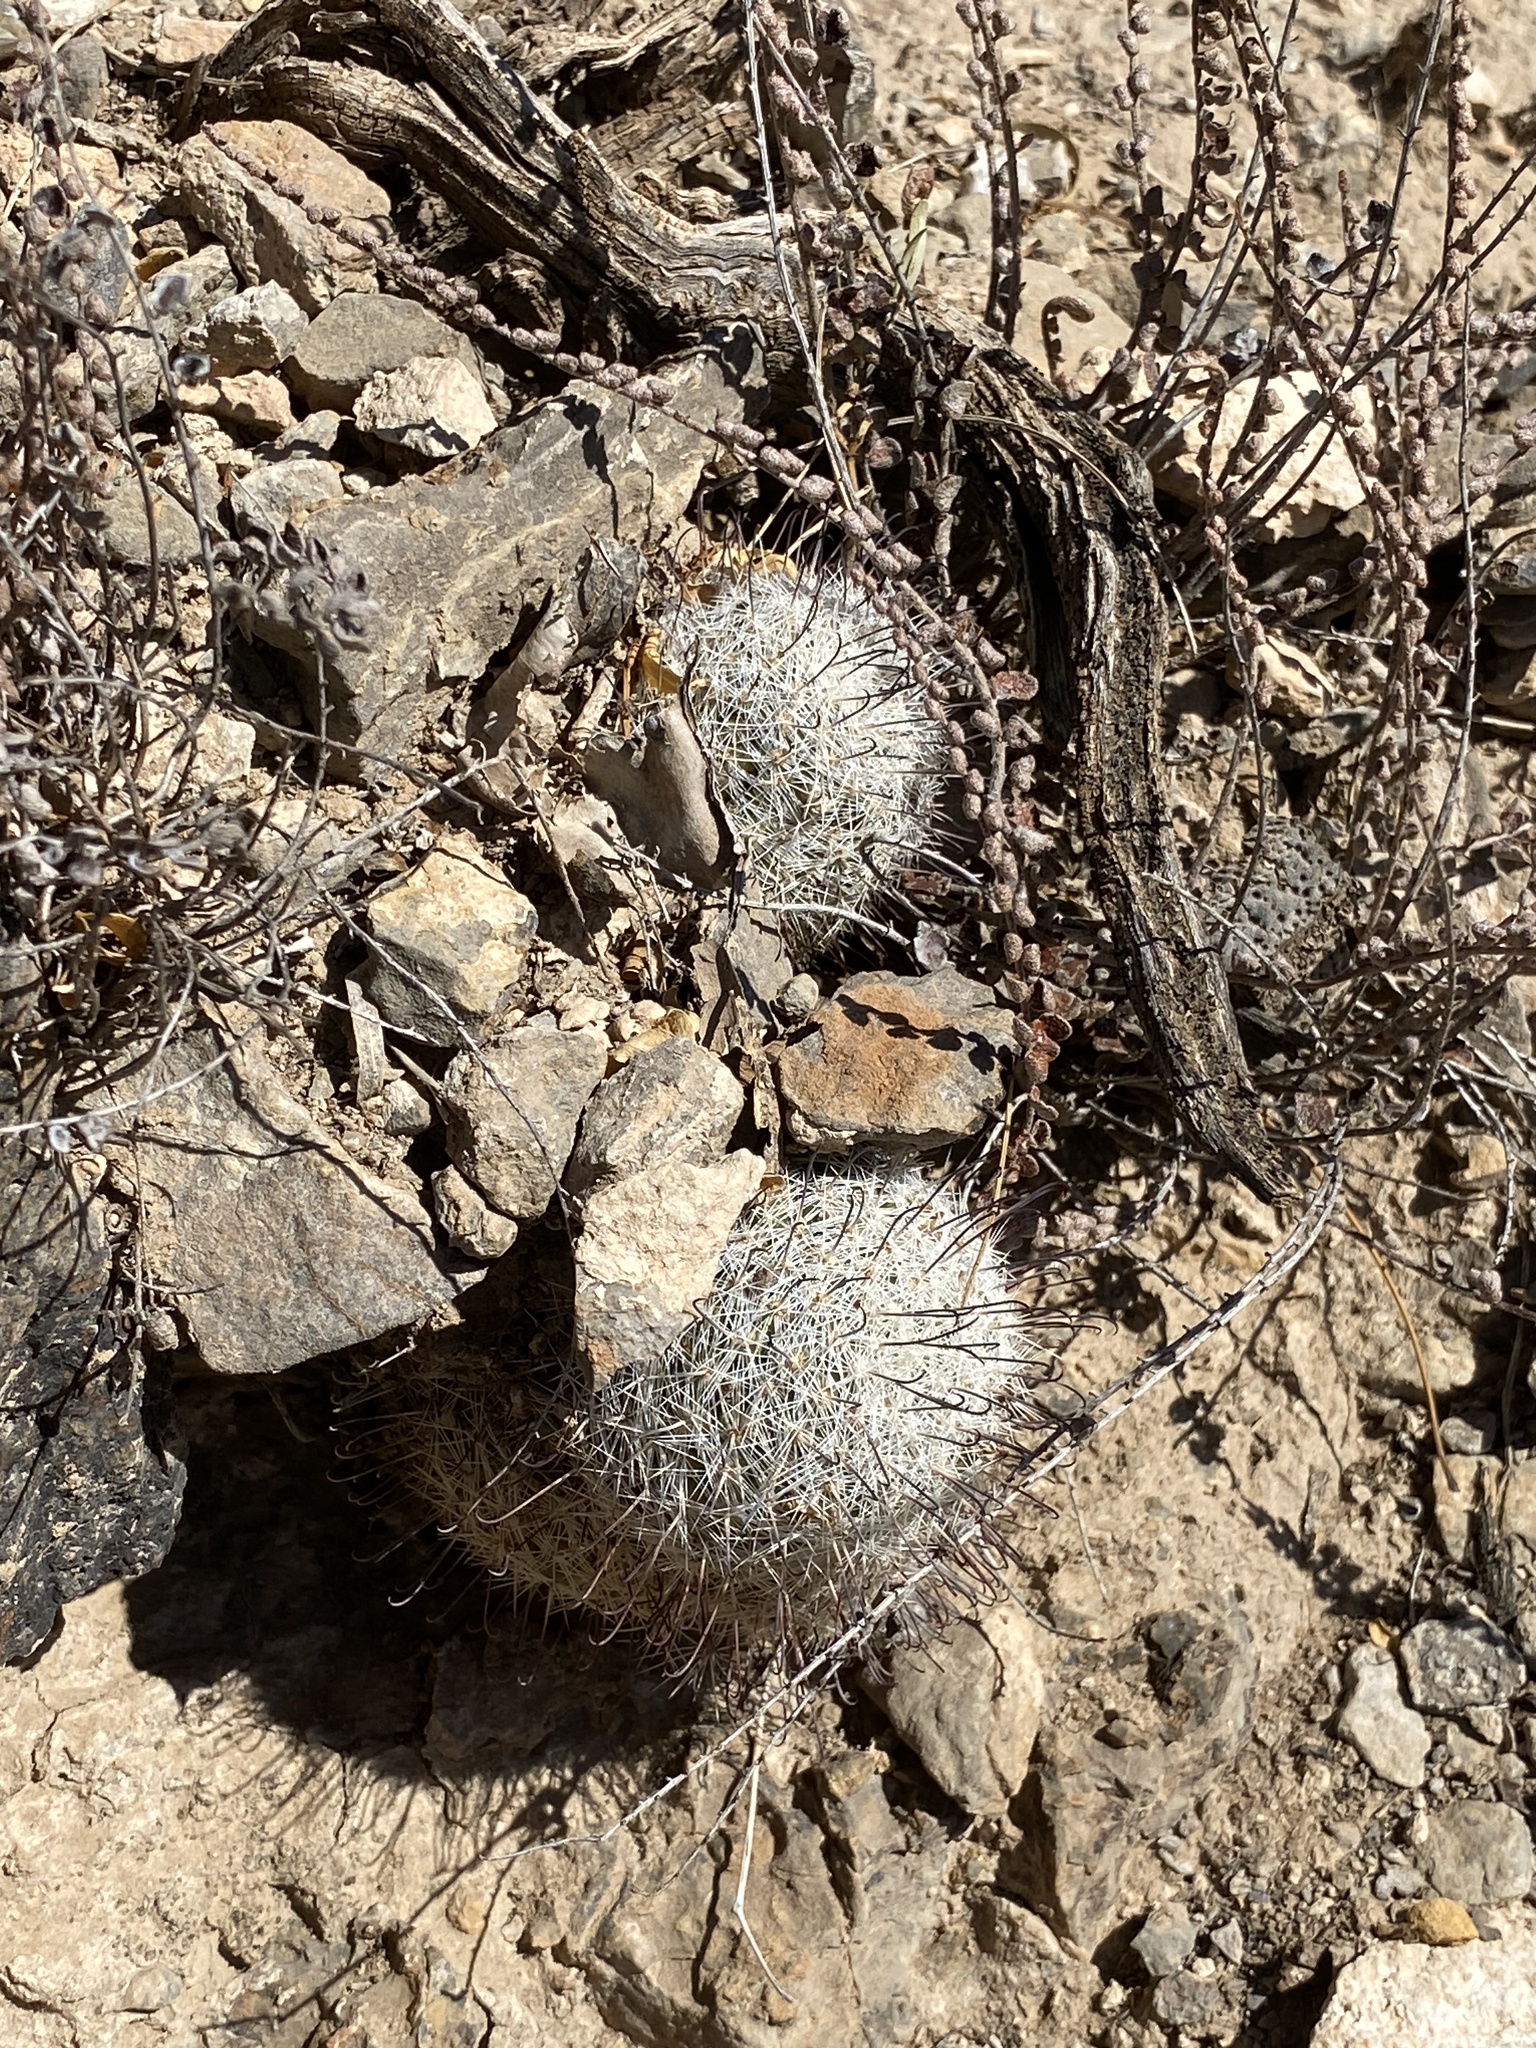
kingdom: Plantae
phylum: Tracheophyta
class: Magnoliopsida
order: Caryophyllales
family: Cactaceae
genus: Cochemiea
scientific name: Cochemiea grahamii
